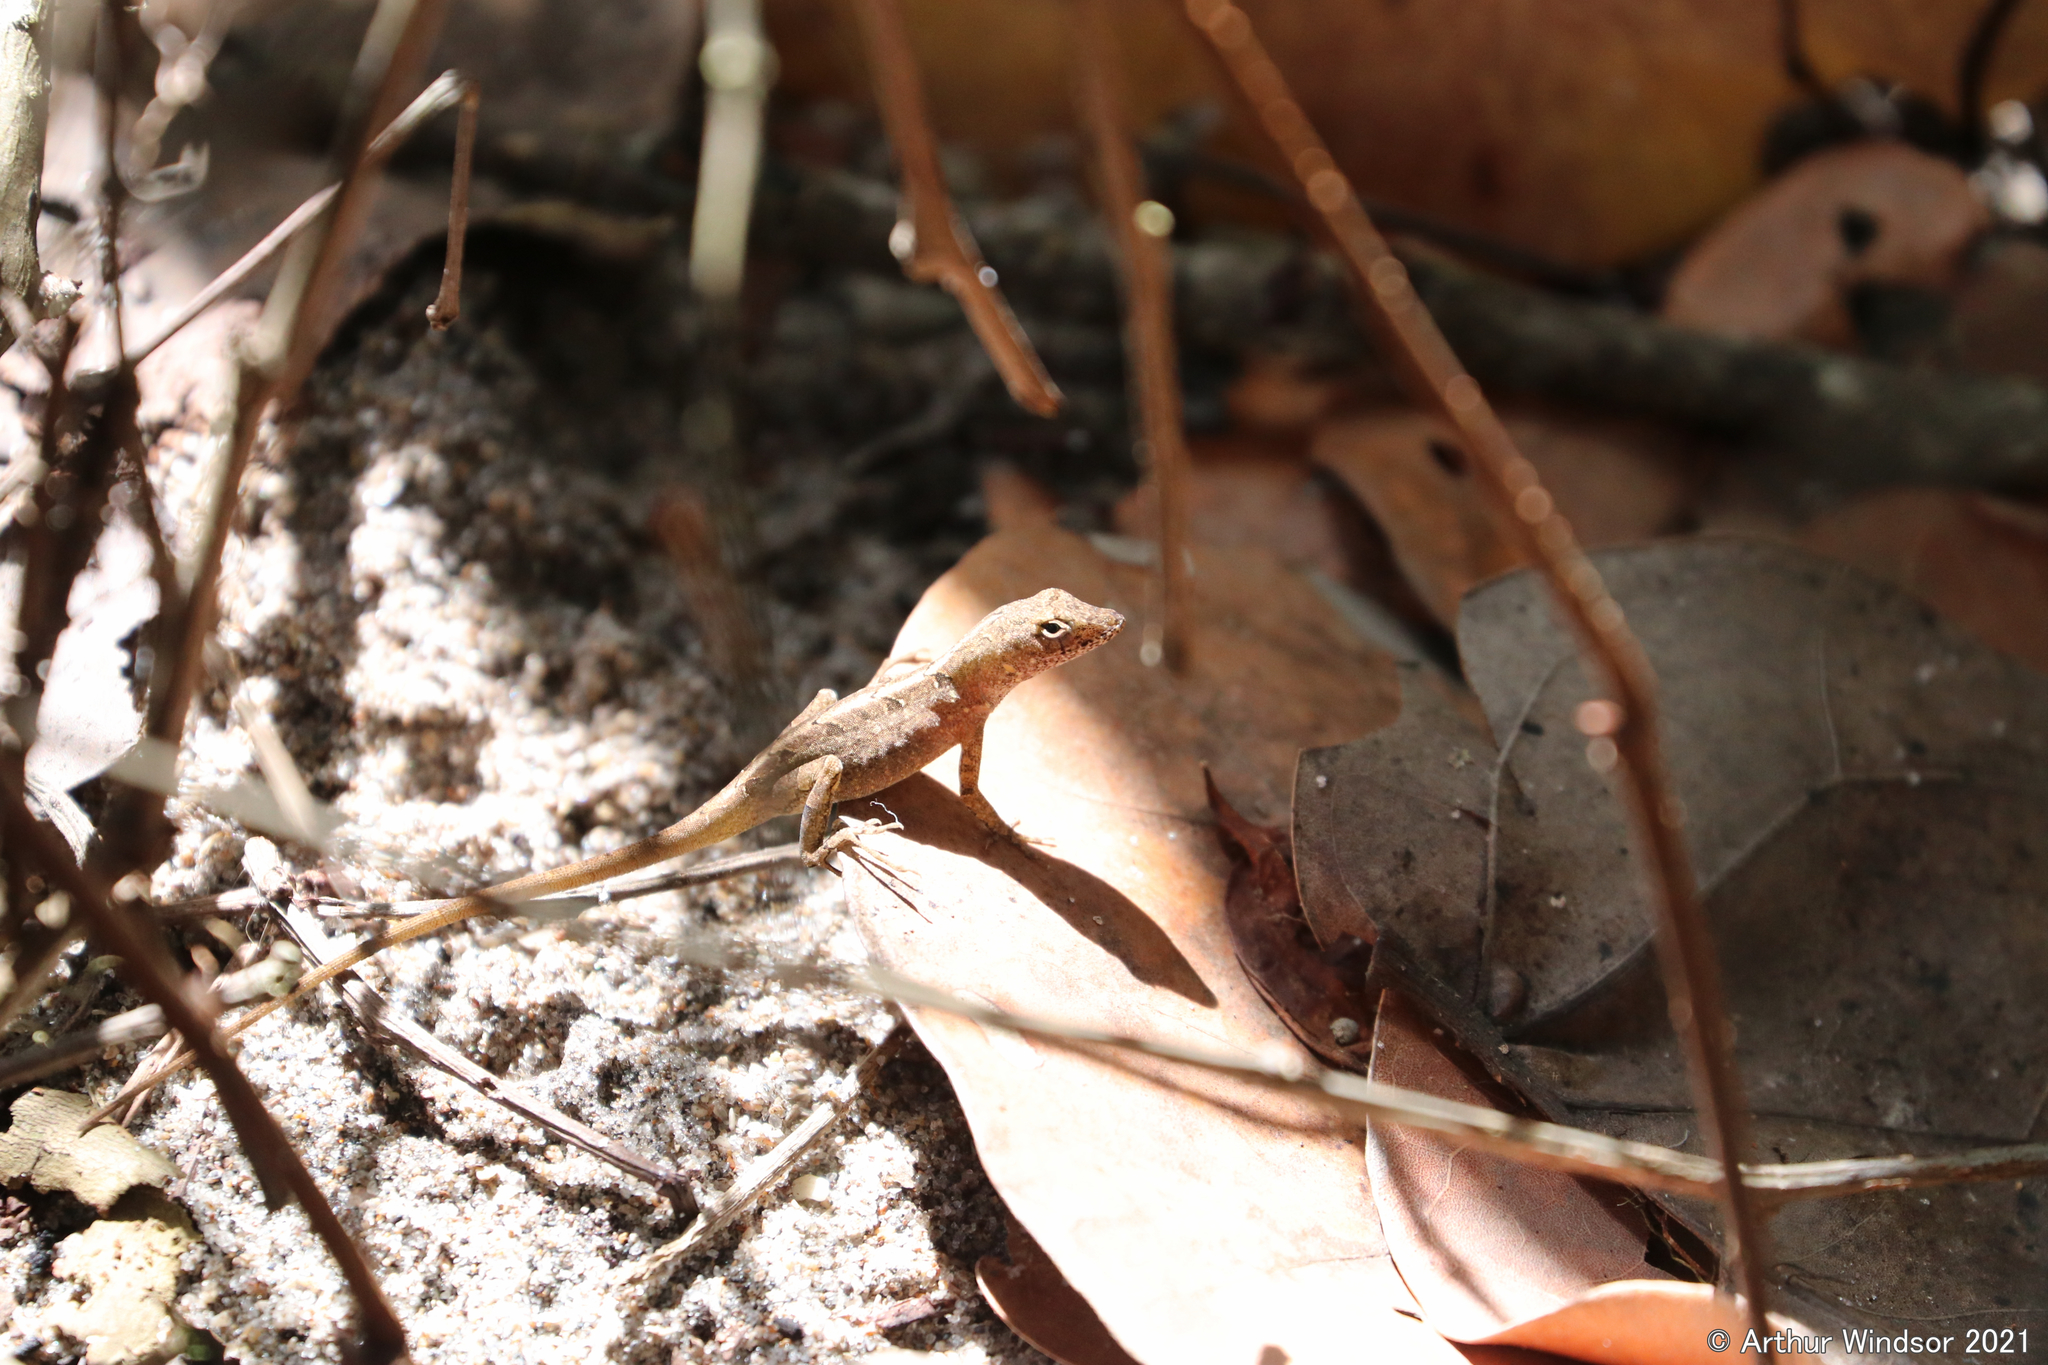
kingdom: Animalia
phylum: Chordata
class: Squamata
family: Dactyloidae
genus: Anolis
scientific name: Anolis sagrei
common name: Brown anole
